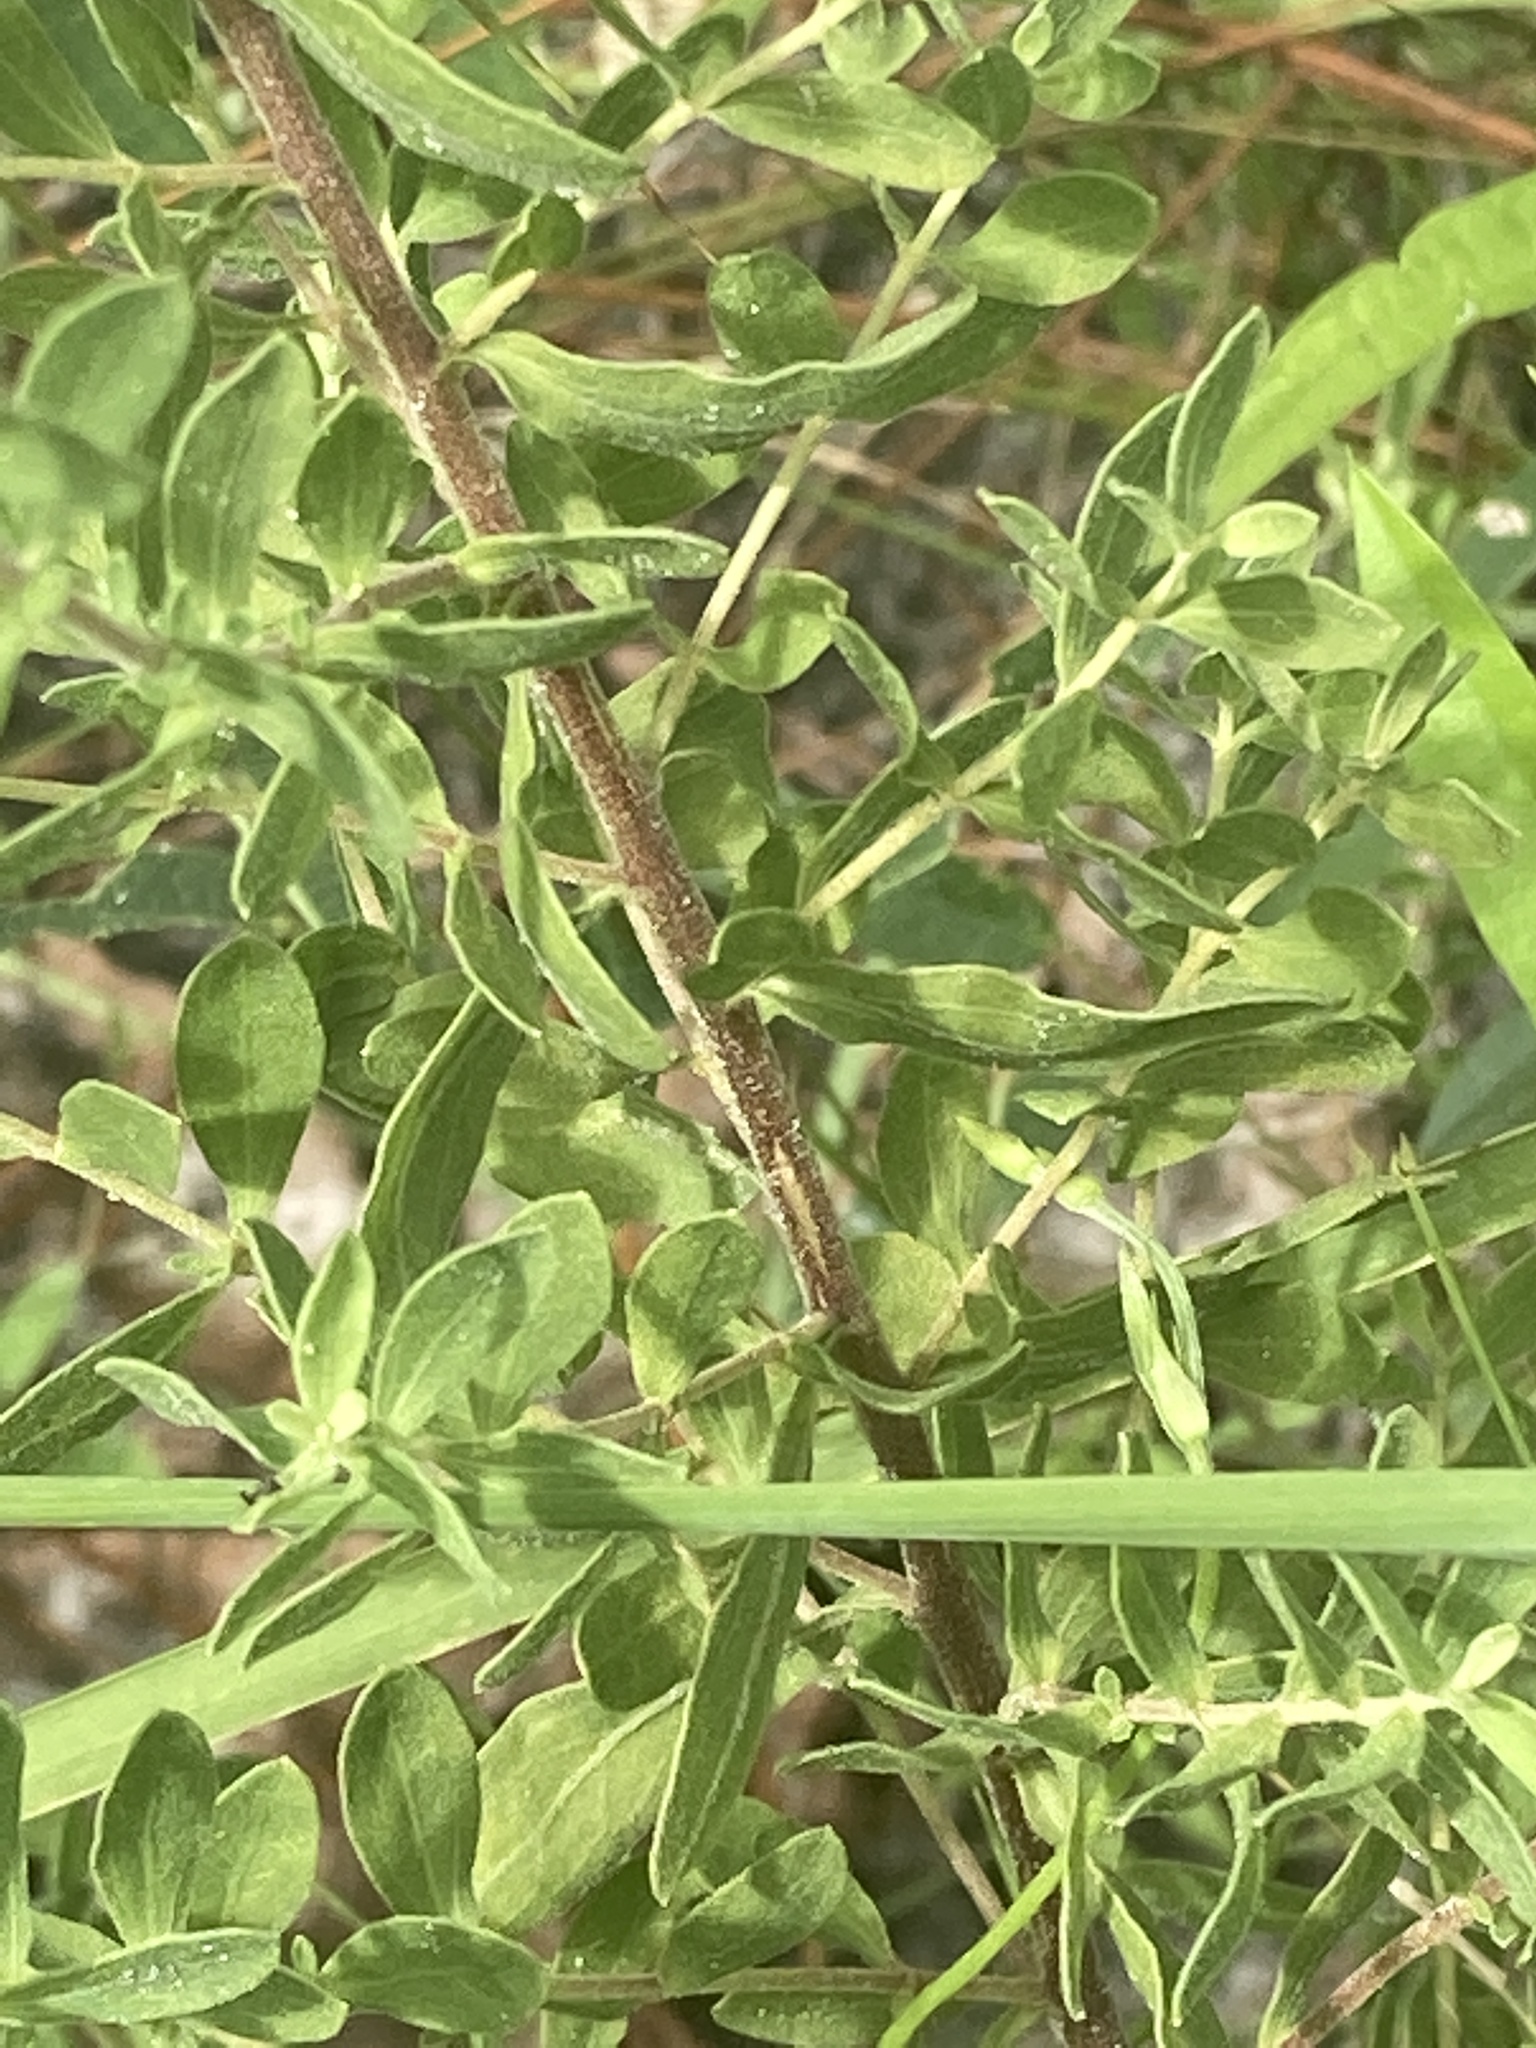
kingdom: Plantae
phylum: Tracheophyta
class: Magnoliopsida
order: Asterales
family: Asteraceae
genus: Eupatorium
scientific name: Eupatorium semiserratum
